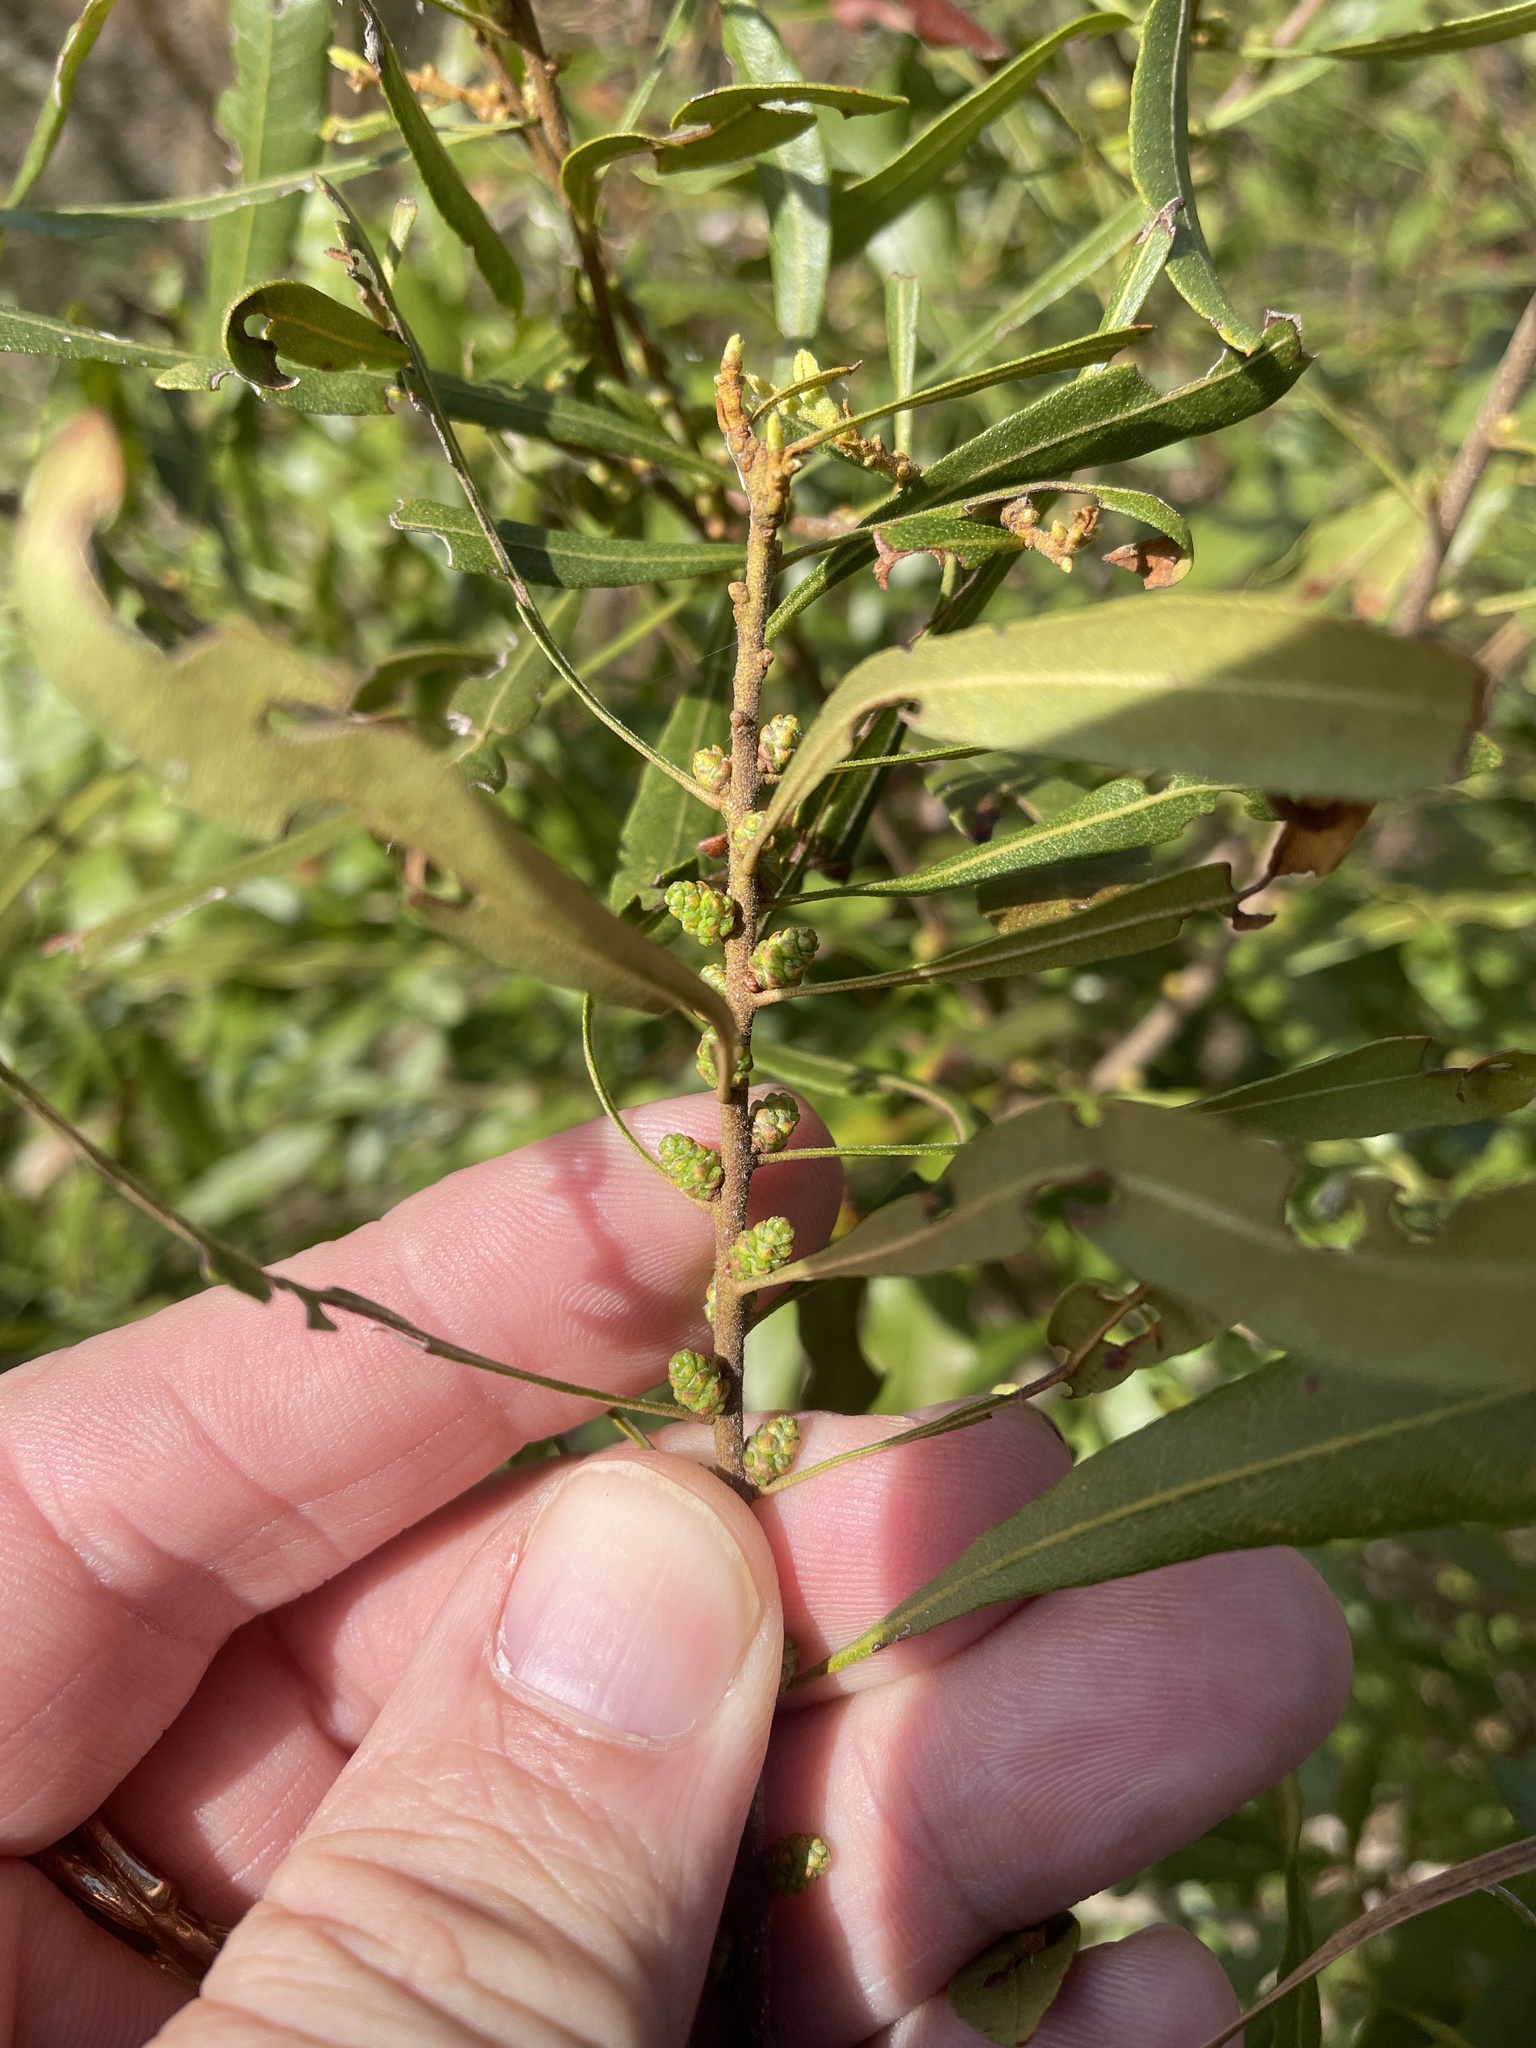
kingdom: Plantae
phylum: Tracheophyta
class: Magnoliopsida
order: Fagales
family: Myricaceae
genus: Morella
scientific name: Morella cerifera
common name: Wax myrtle
